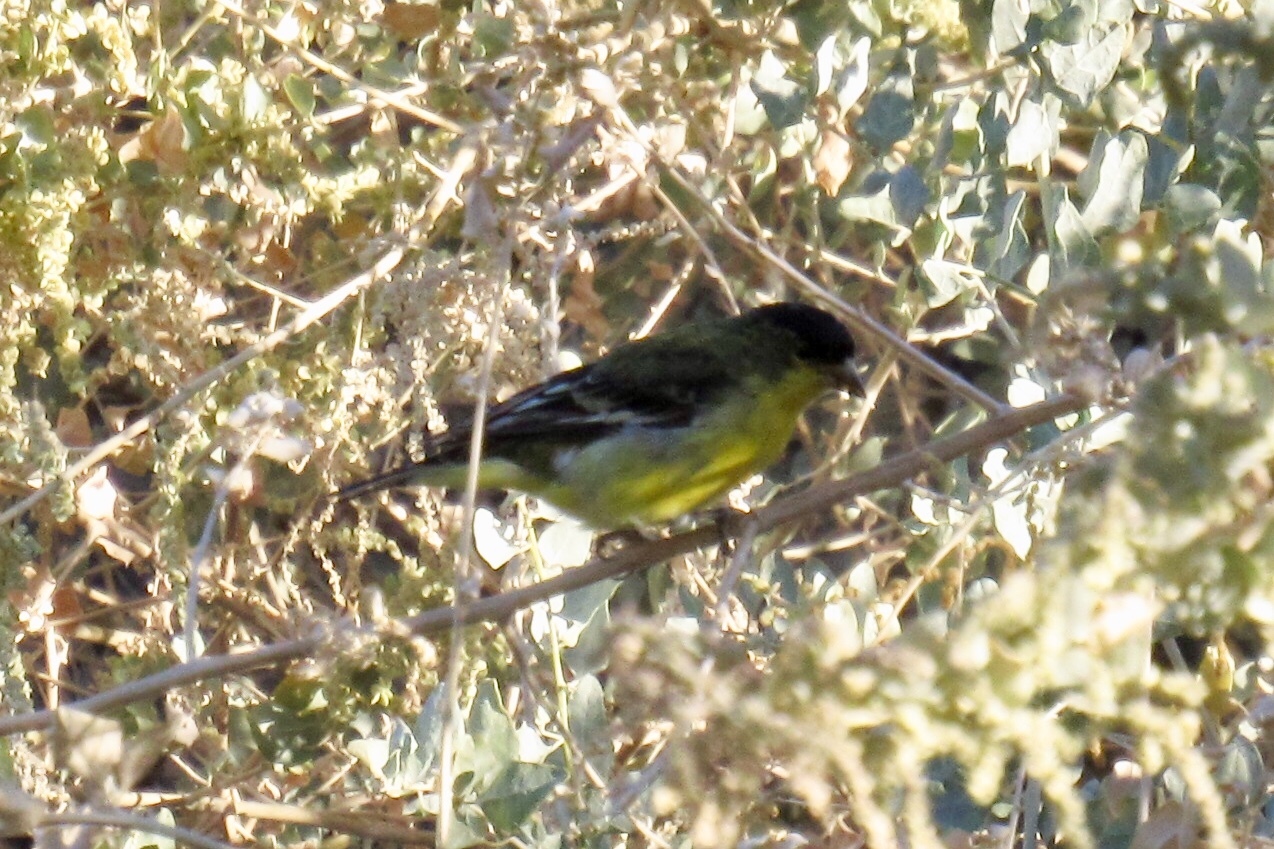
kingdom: Animalia
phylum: Chordata
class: Aves
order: Passeriformes
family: Fringillidae
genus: Spinus
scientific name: Spinus psaltria
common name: Lesser goldfinch
